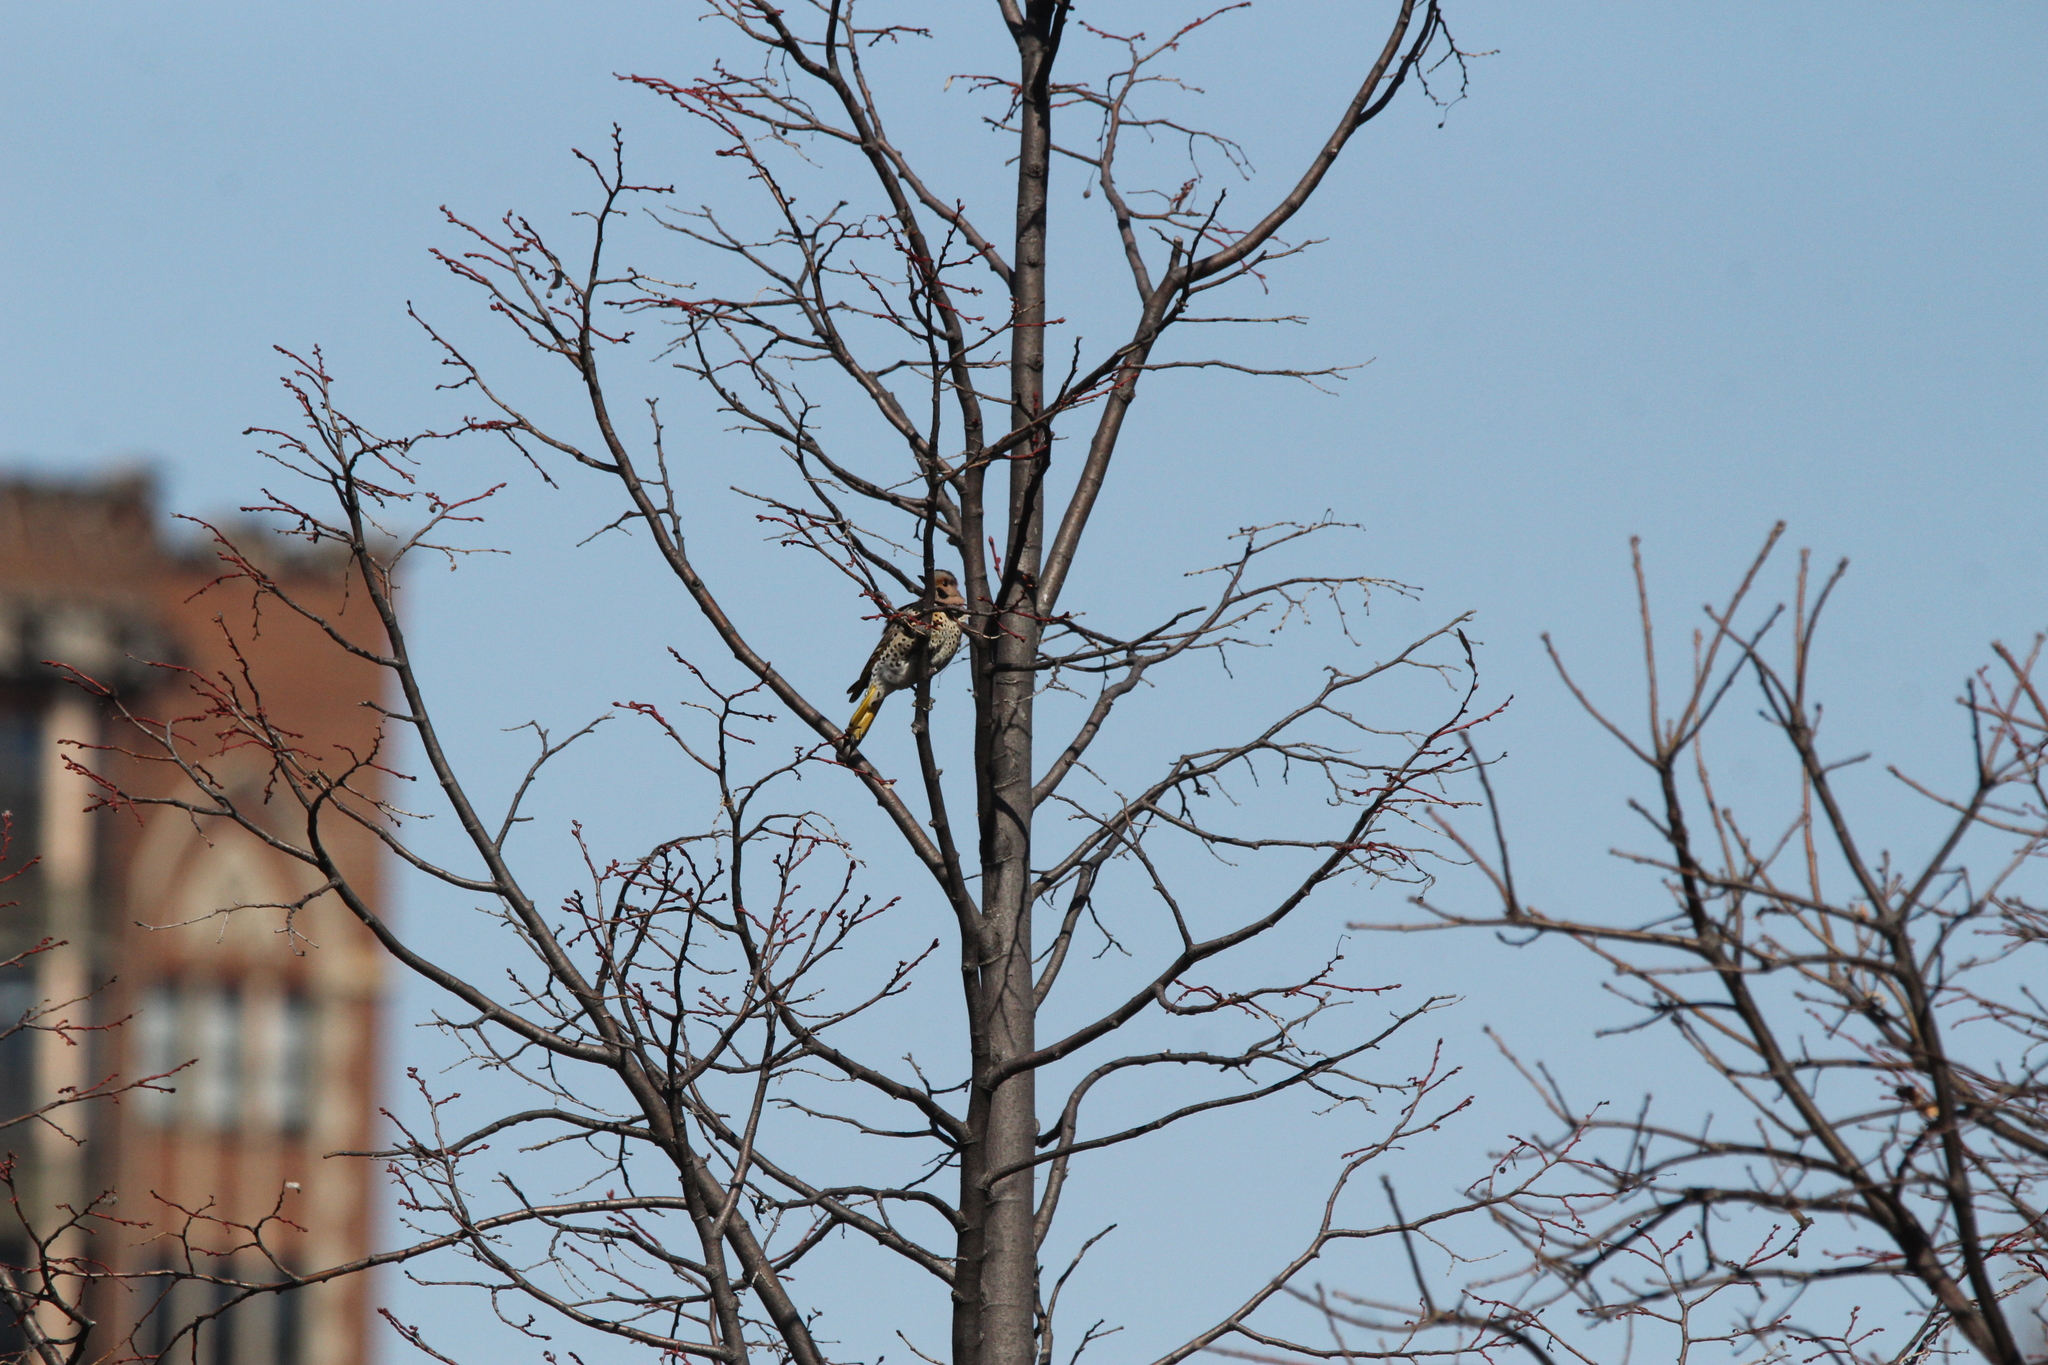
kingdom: Animalia
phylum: Chordata
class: Aves
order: Piciformes
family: Picidae
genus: Colaptes
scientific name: Colaptes auratus
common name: Northern flicker
